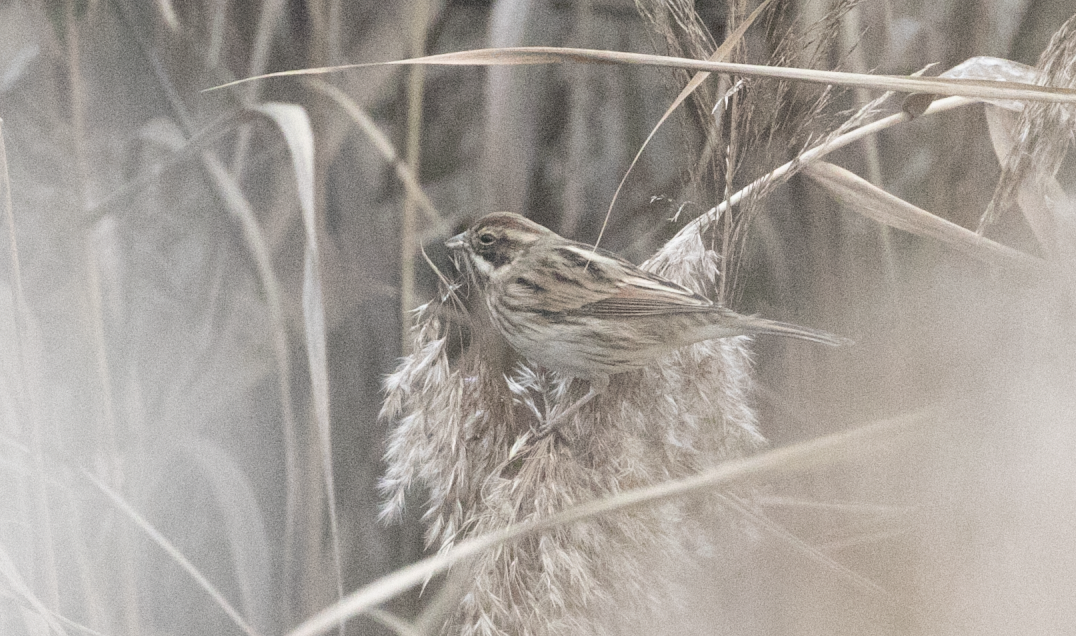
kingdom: Animalia
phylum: Chordata
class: Aves
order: Passeriformes
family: Emberizidae
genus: Emberiza
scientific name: Emberiza schoeniclus
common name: Reed bunting
